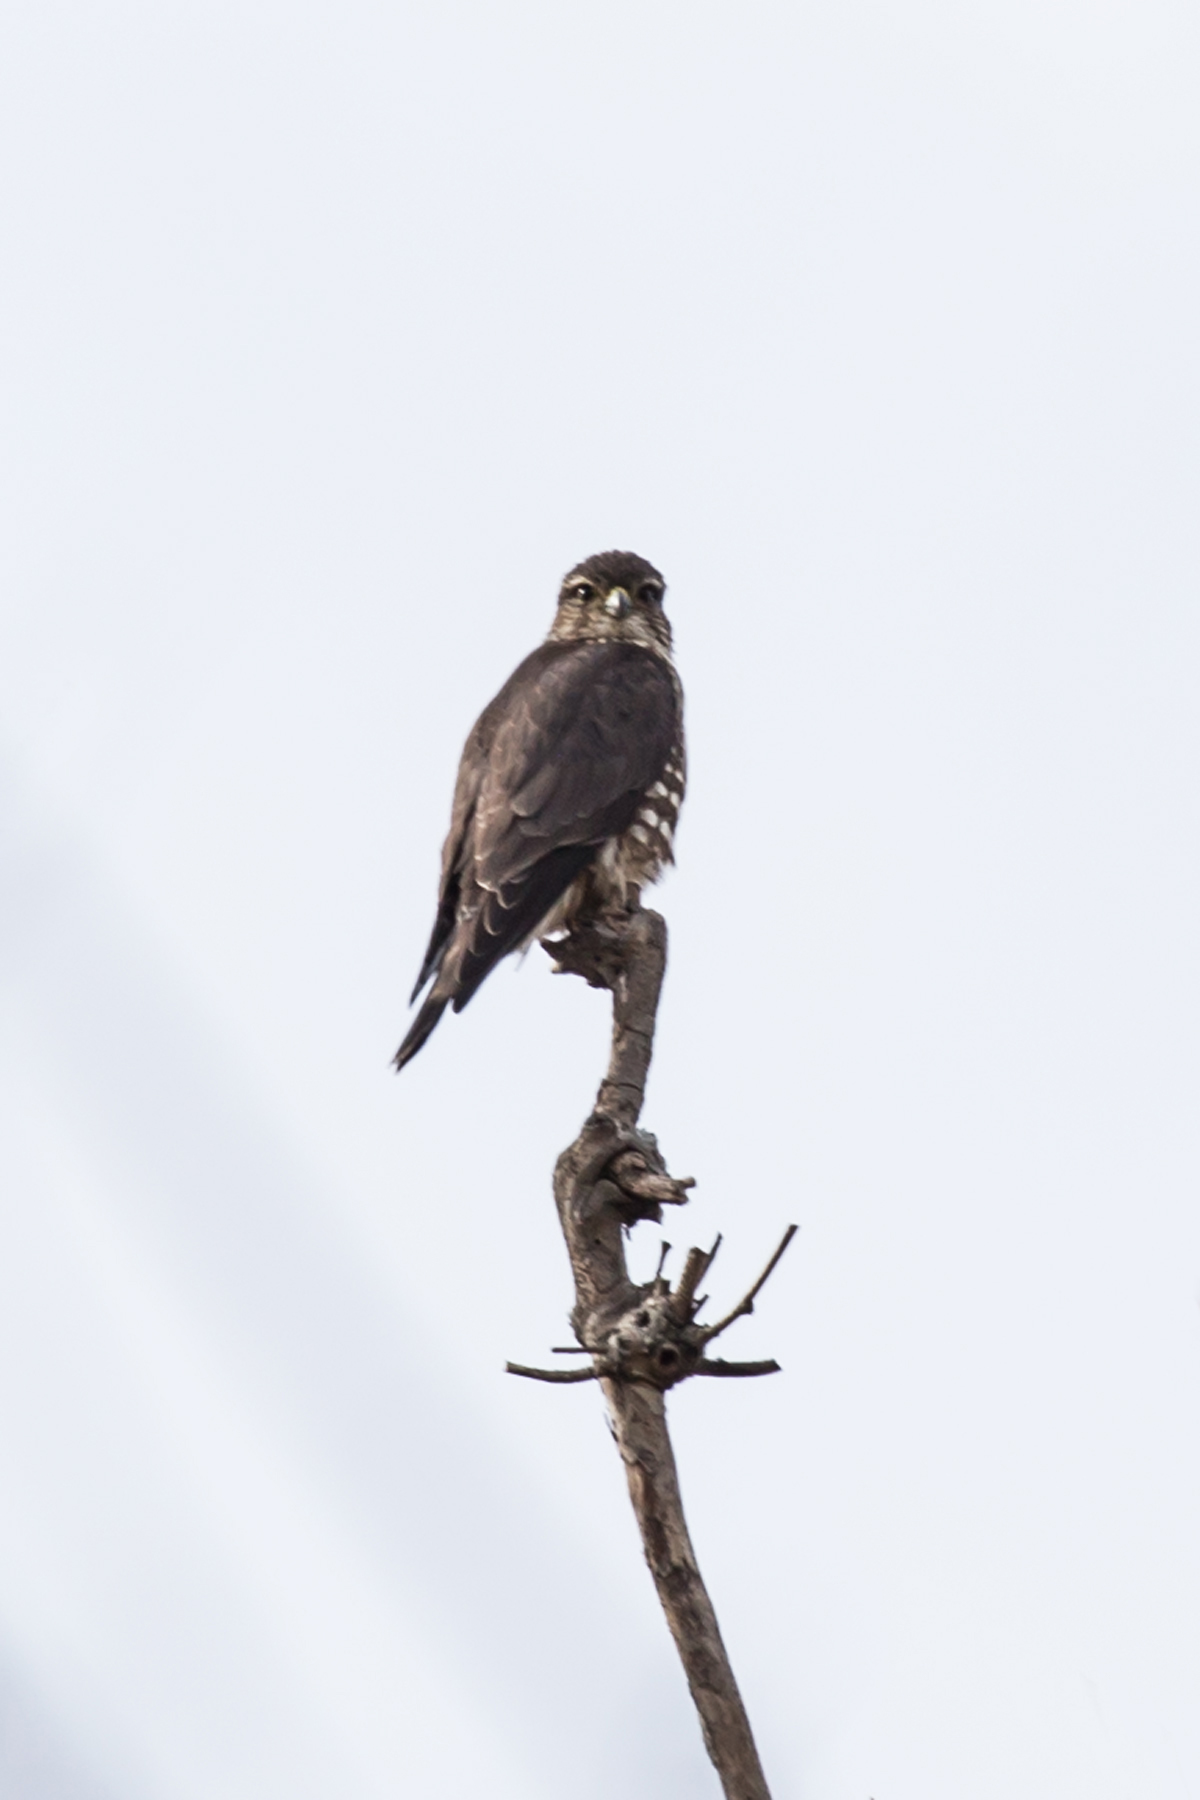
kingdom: Animalia
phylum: Chordata
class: Aves
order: Falconiformes
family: Falconidae
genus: Falco
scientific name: Falco columbarius
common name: Merlin
